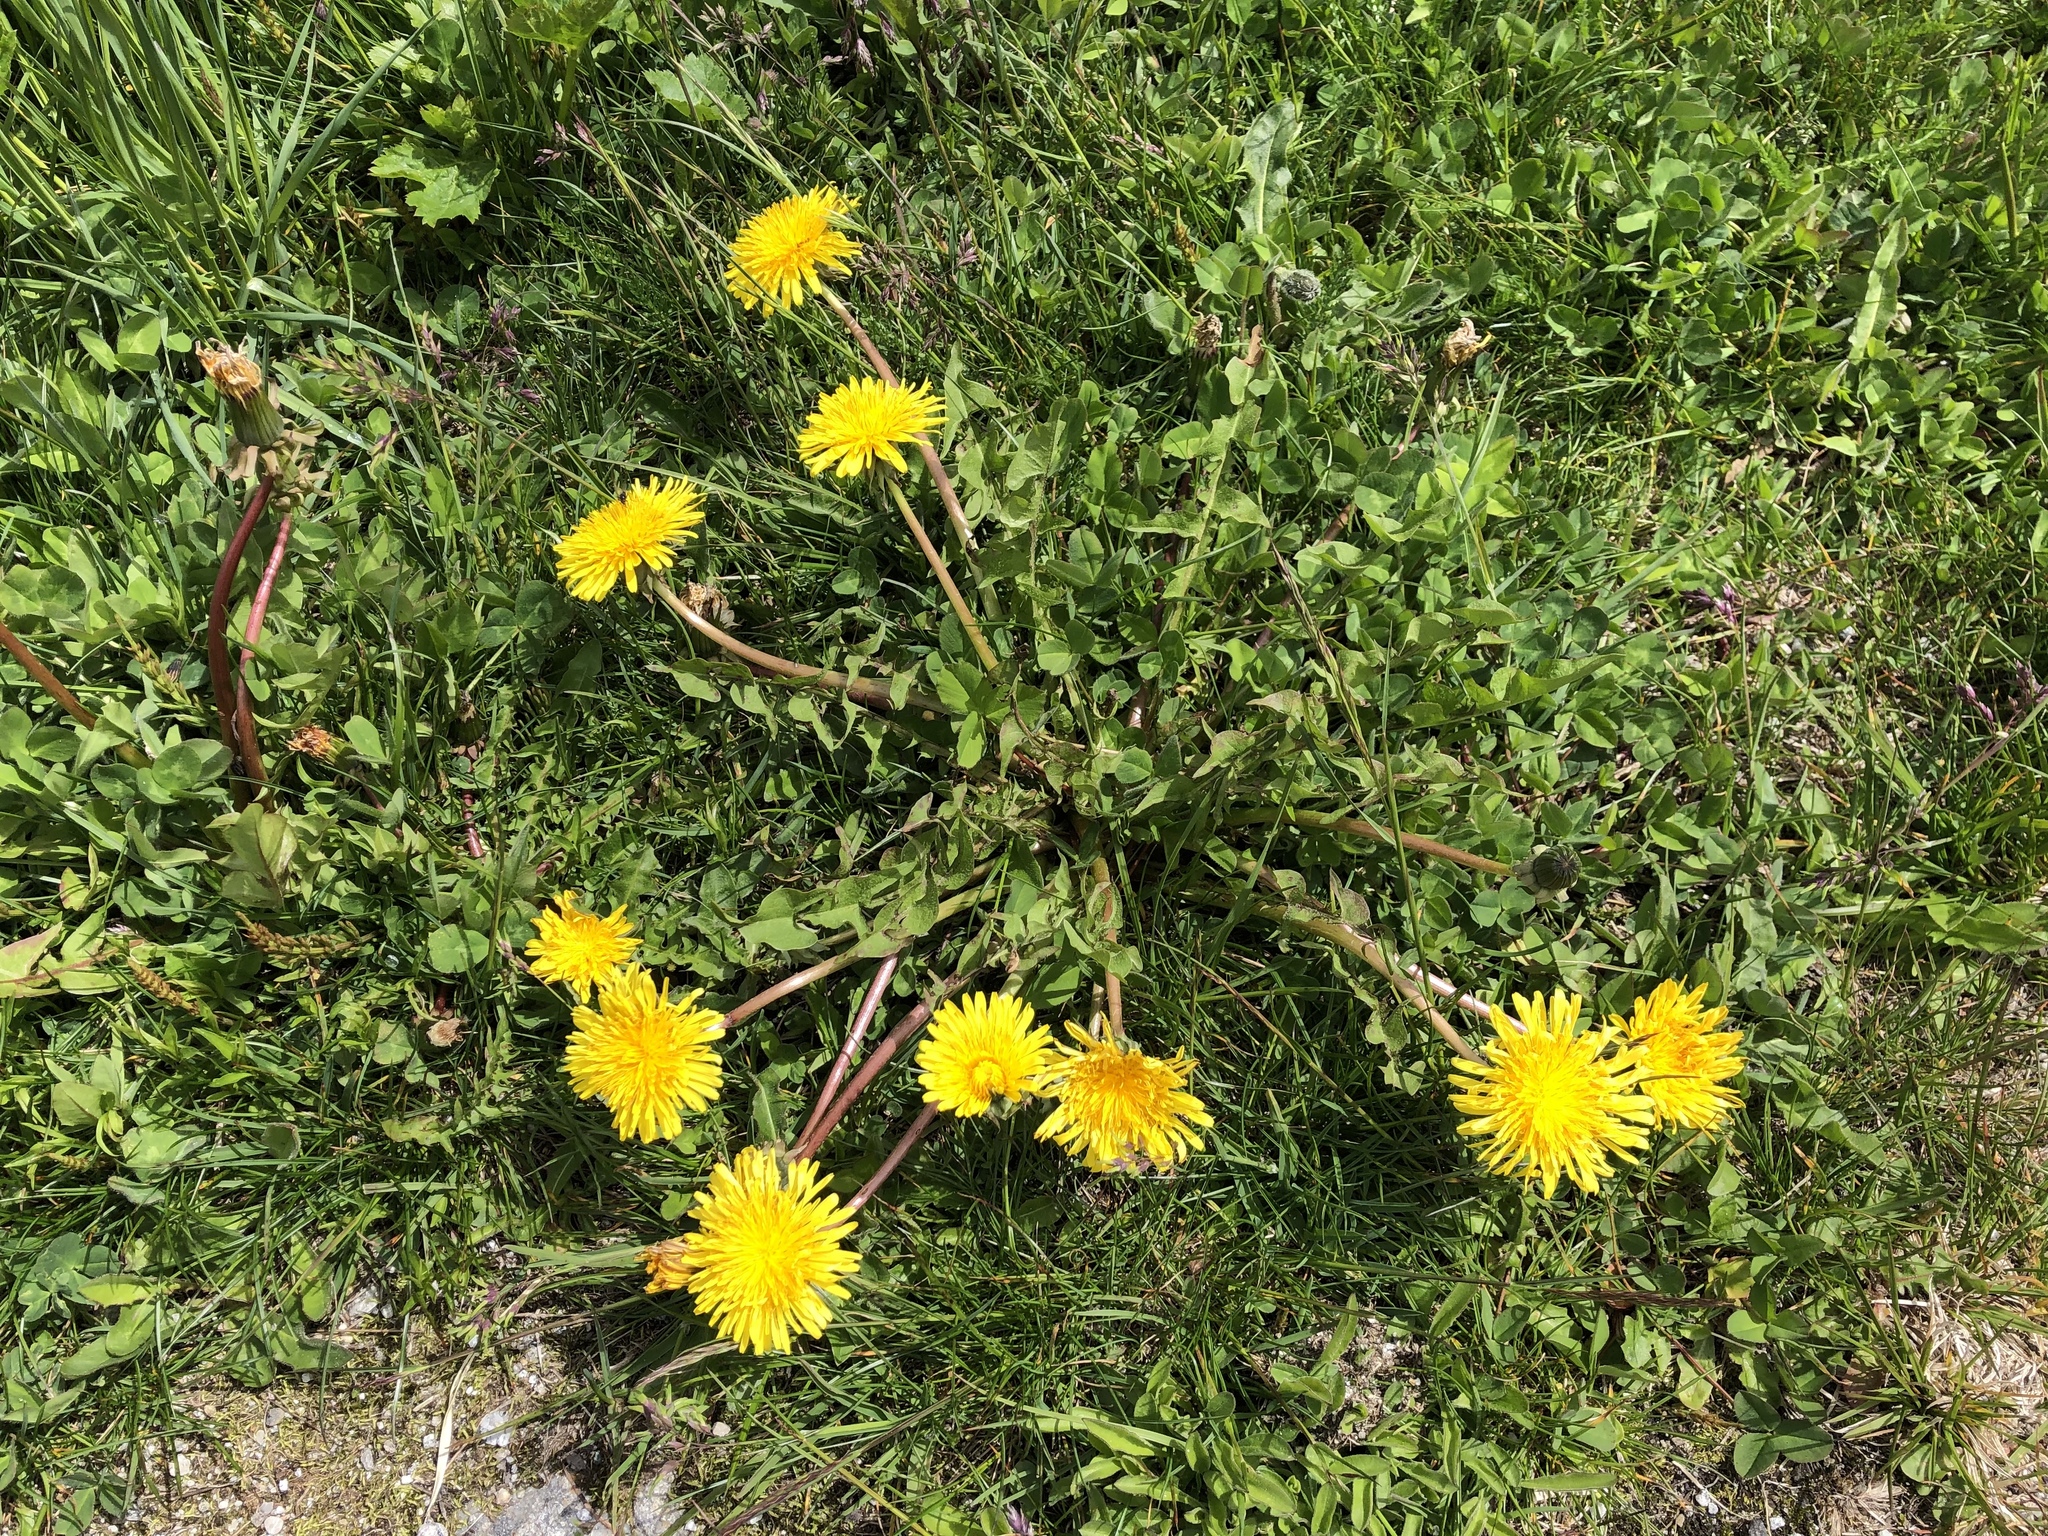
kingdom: Plantae
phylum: Tracheophyta
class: Magnoliopsida
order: Asterales
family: Asteraceae
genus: Taraxacum
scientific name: Taraxacum officinale
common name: Common dandelion
